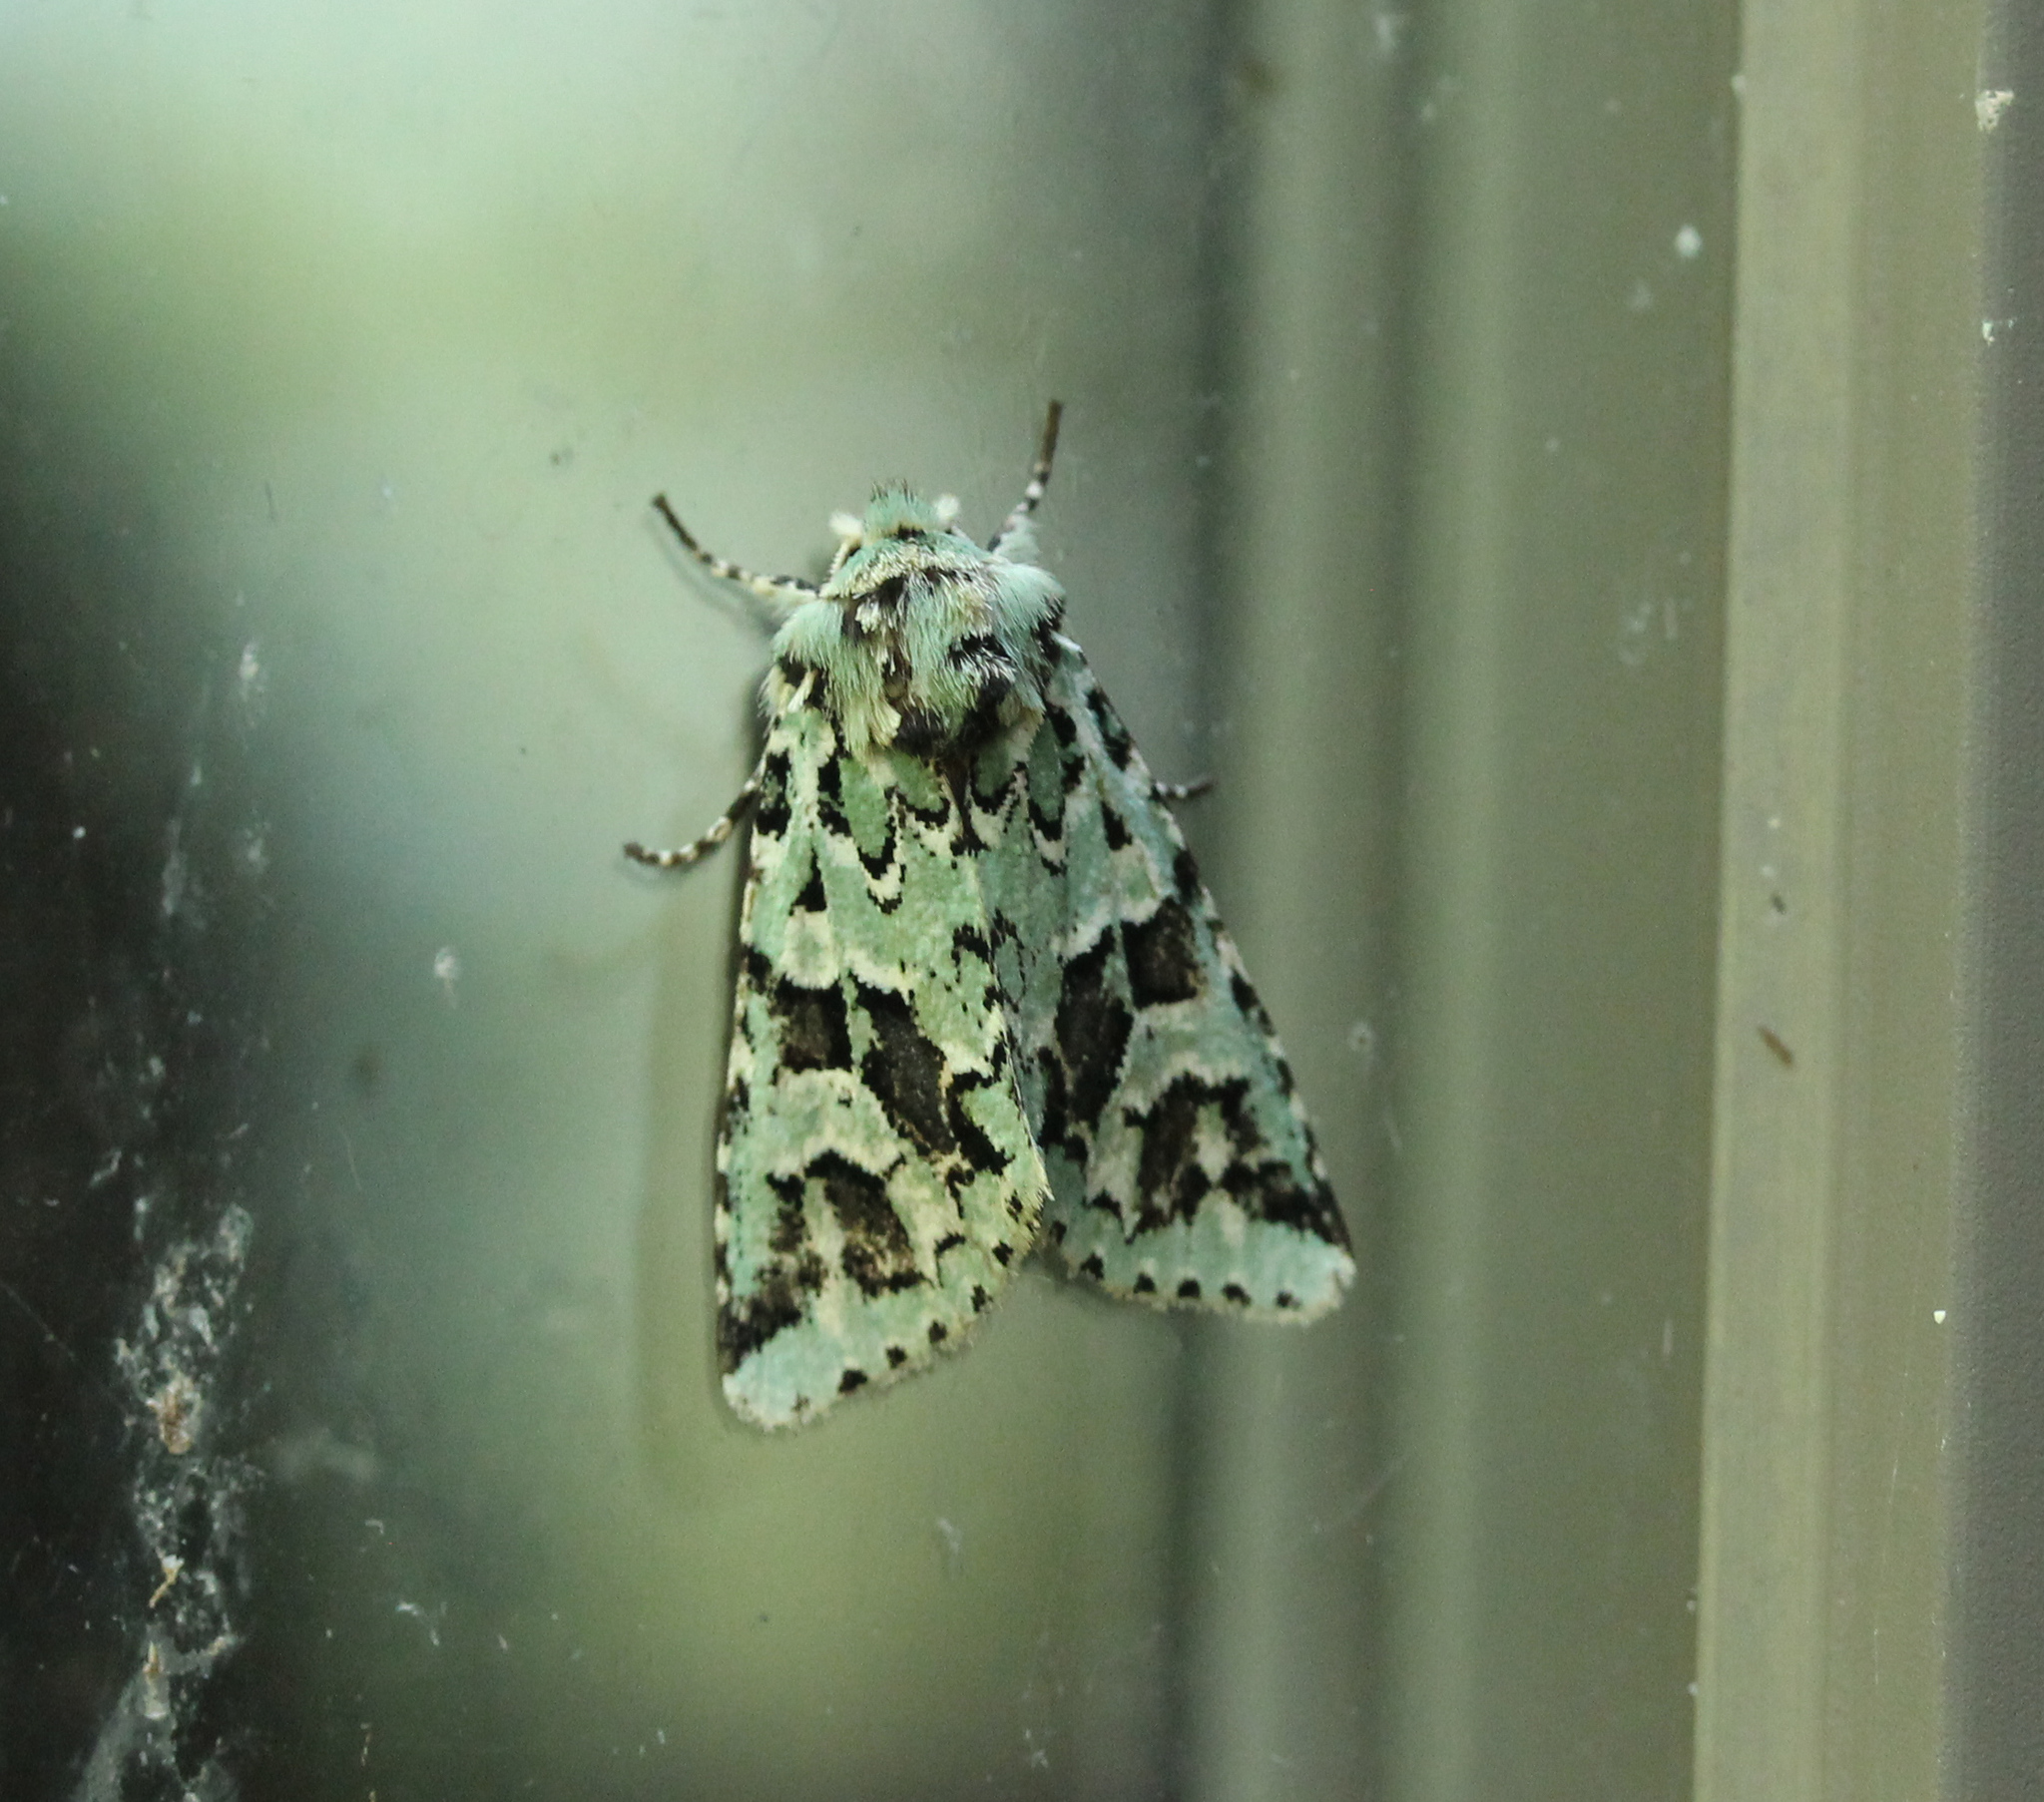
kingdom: Animalia
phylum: Arthropoda
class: Insecta
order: Lepidoptera
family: Noctuidae
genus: Feralia
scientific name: Feralia comstocki
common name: Comstock's sallow
